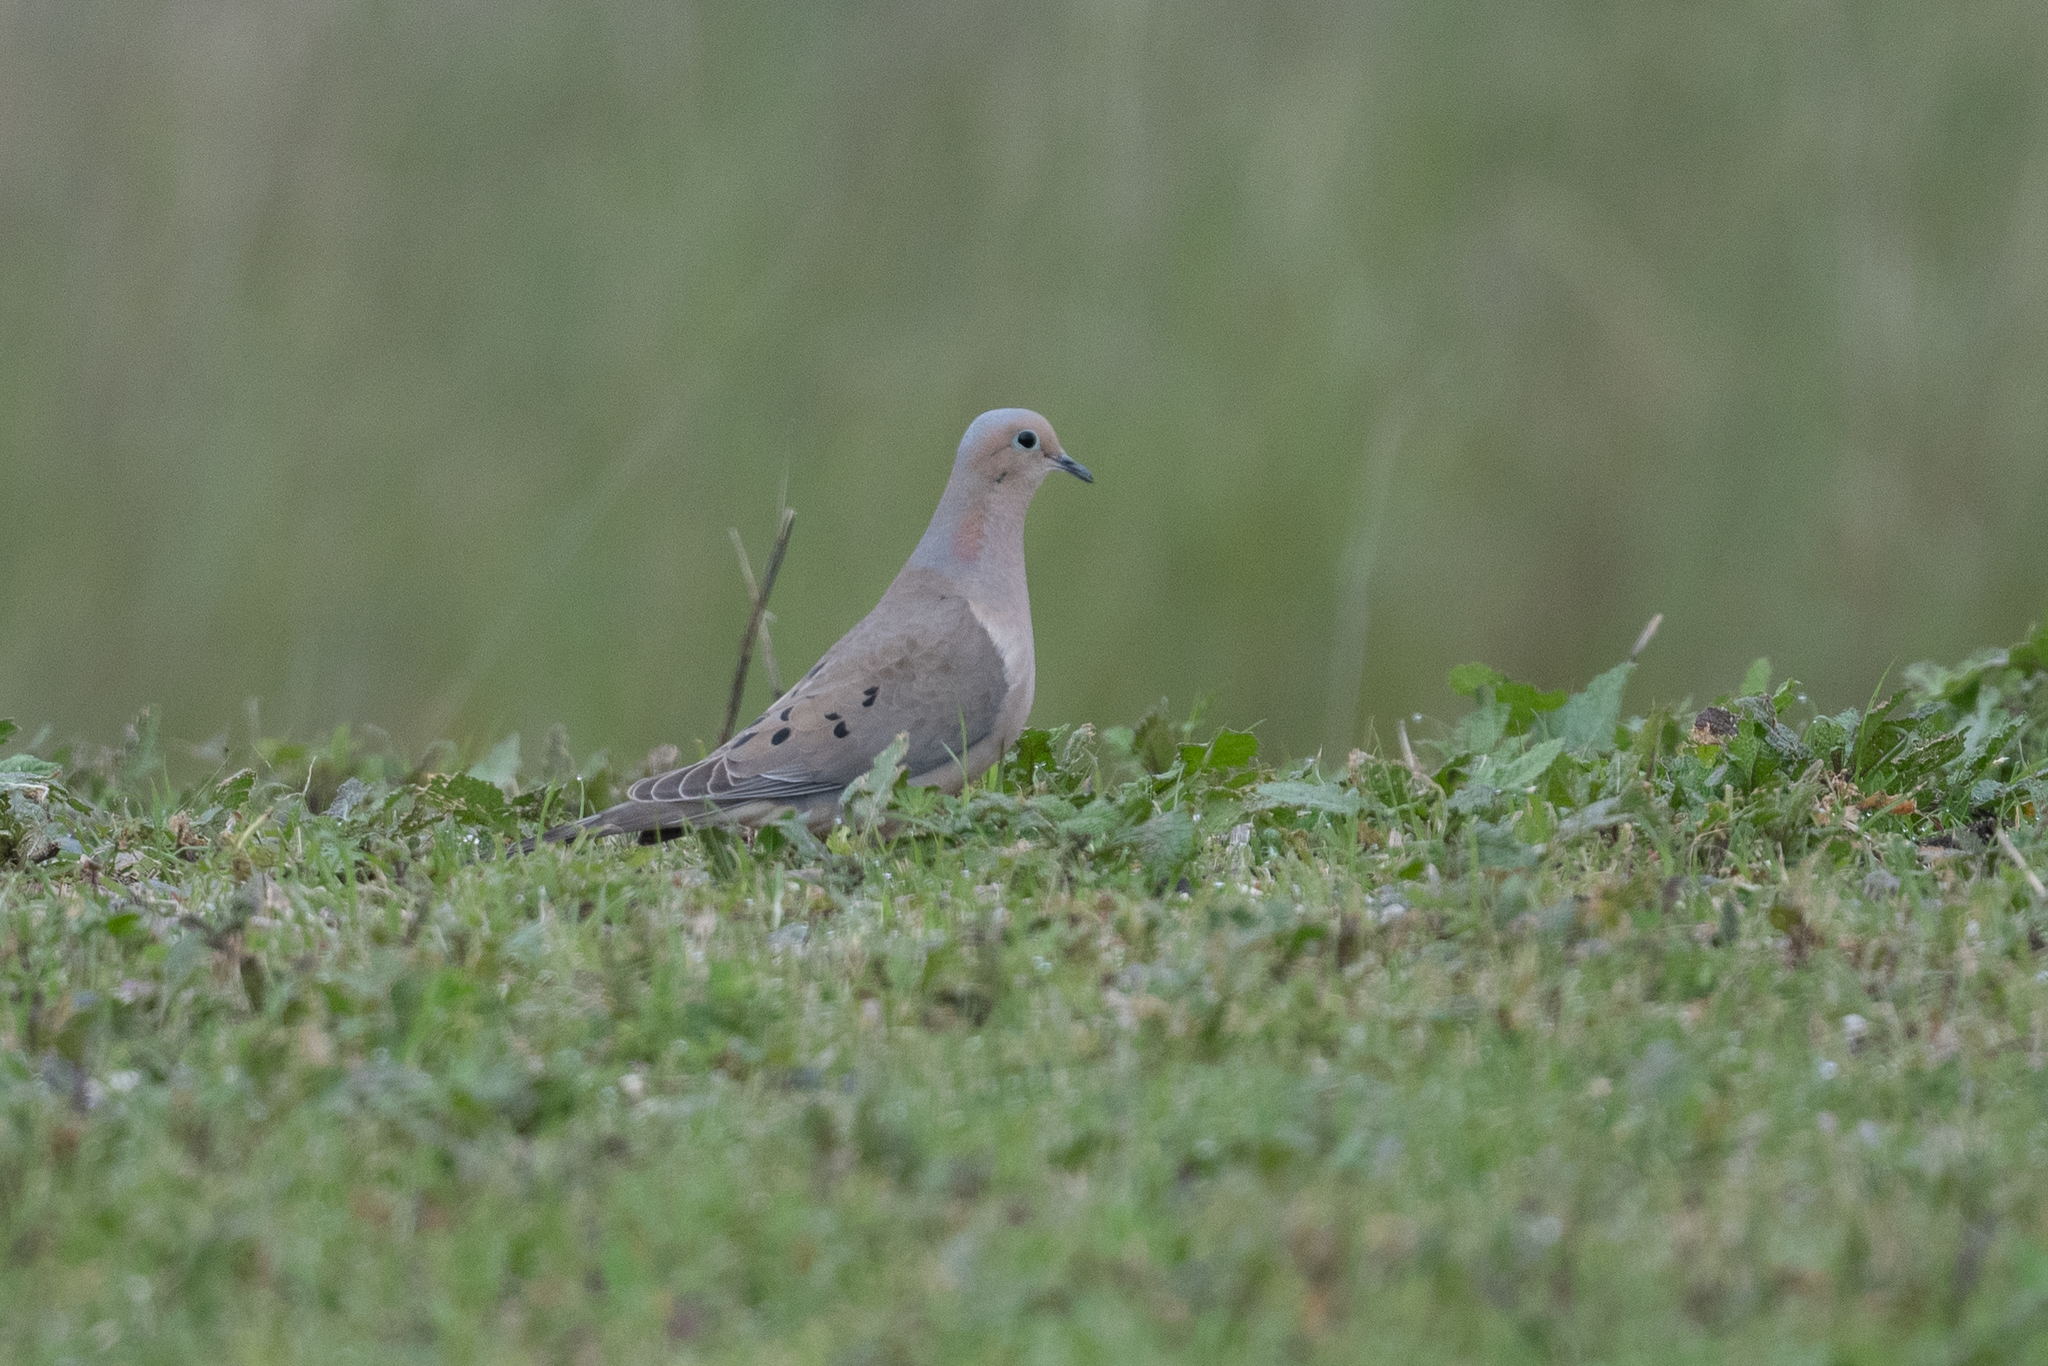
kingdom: Animalia
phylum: Chordata
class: Aves
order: Columbiformes
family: Columbidae
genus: Zenaida
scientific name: Zenaida macroura
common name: Mourning dove
